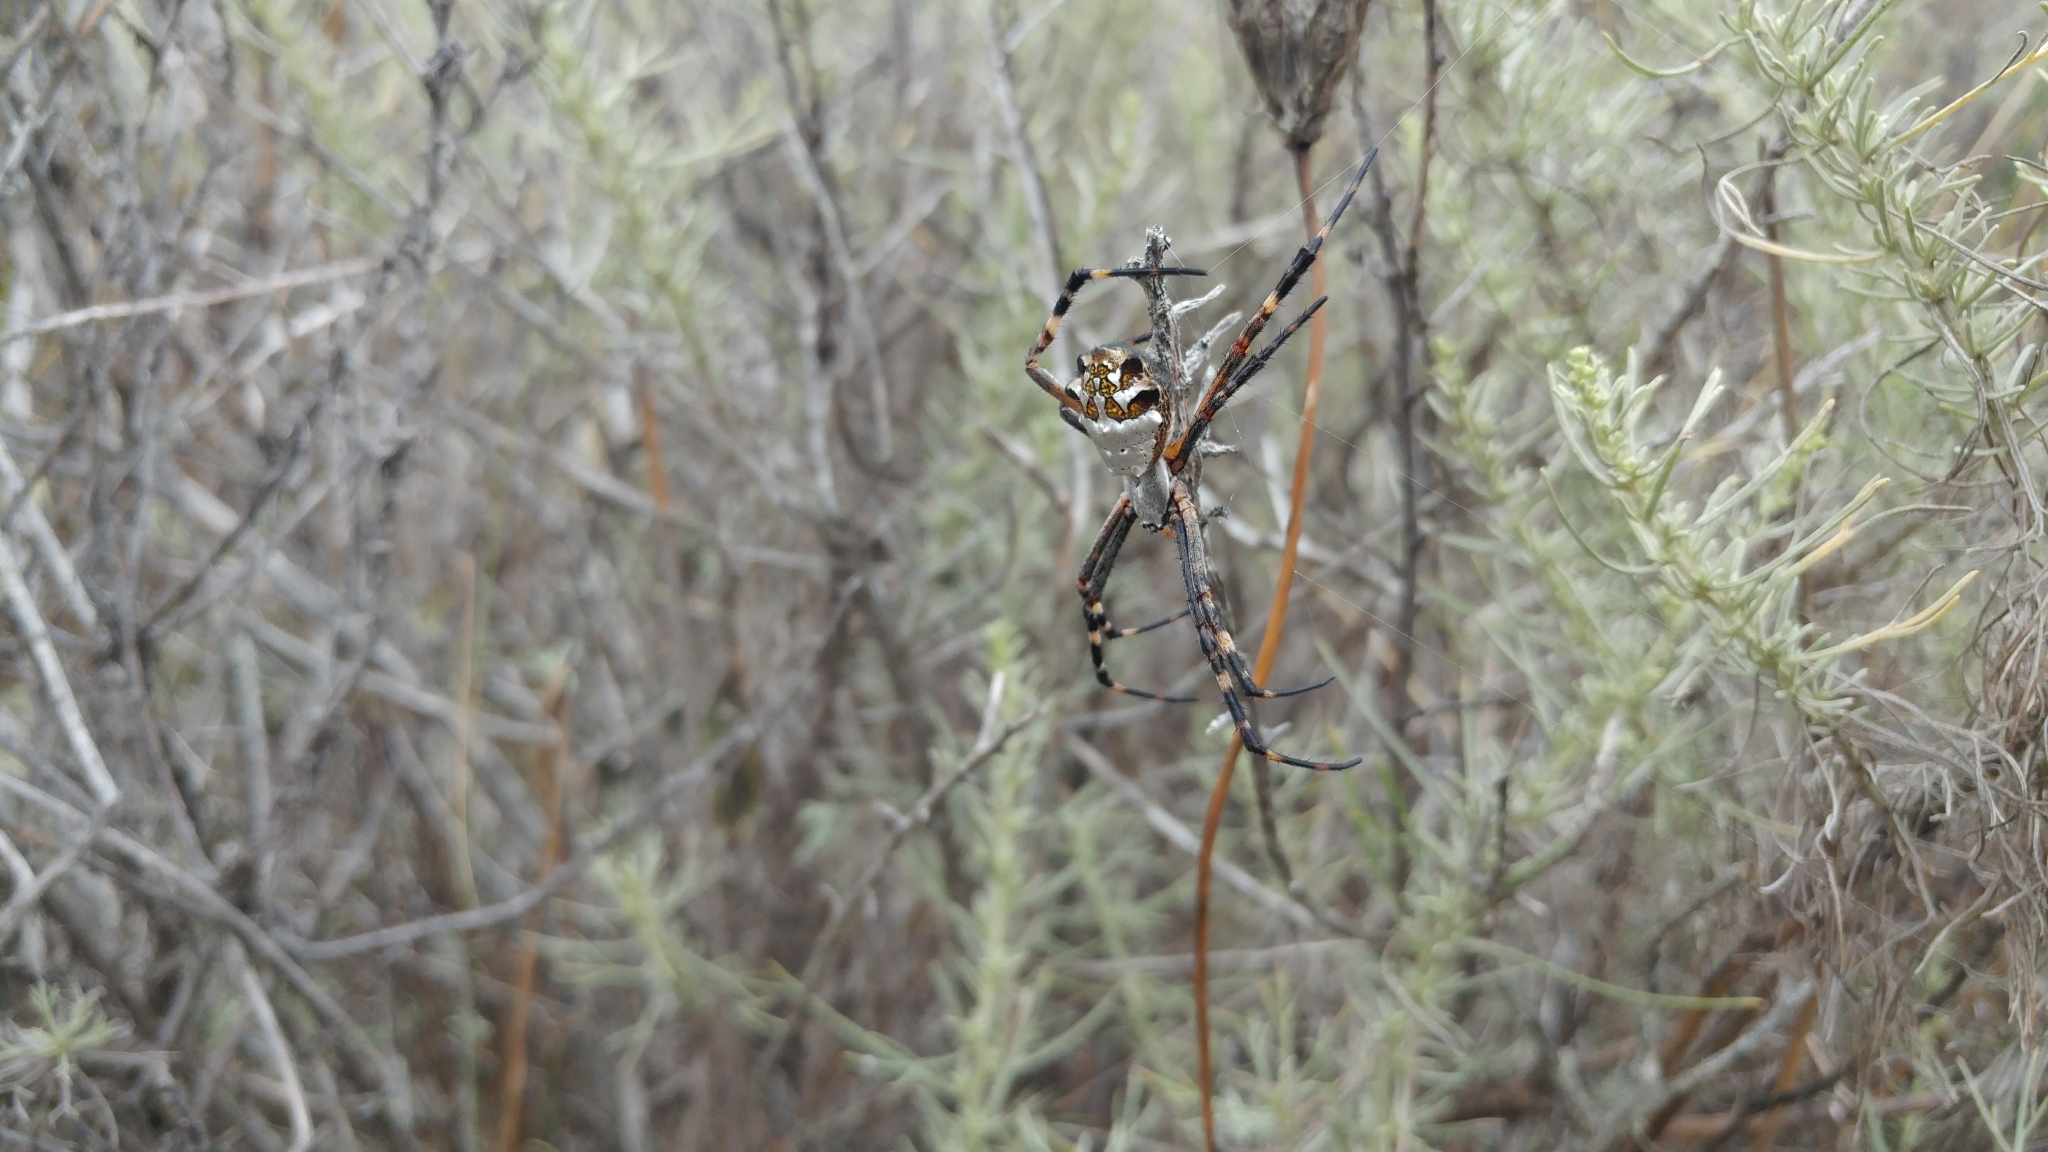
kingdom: Animalia
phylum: Arthropoda
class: Arachnida
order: Araneae
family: Araneidae
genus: Argiope
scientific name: Argiope argentata
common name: Orb weavers
